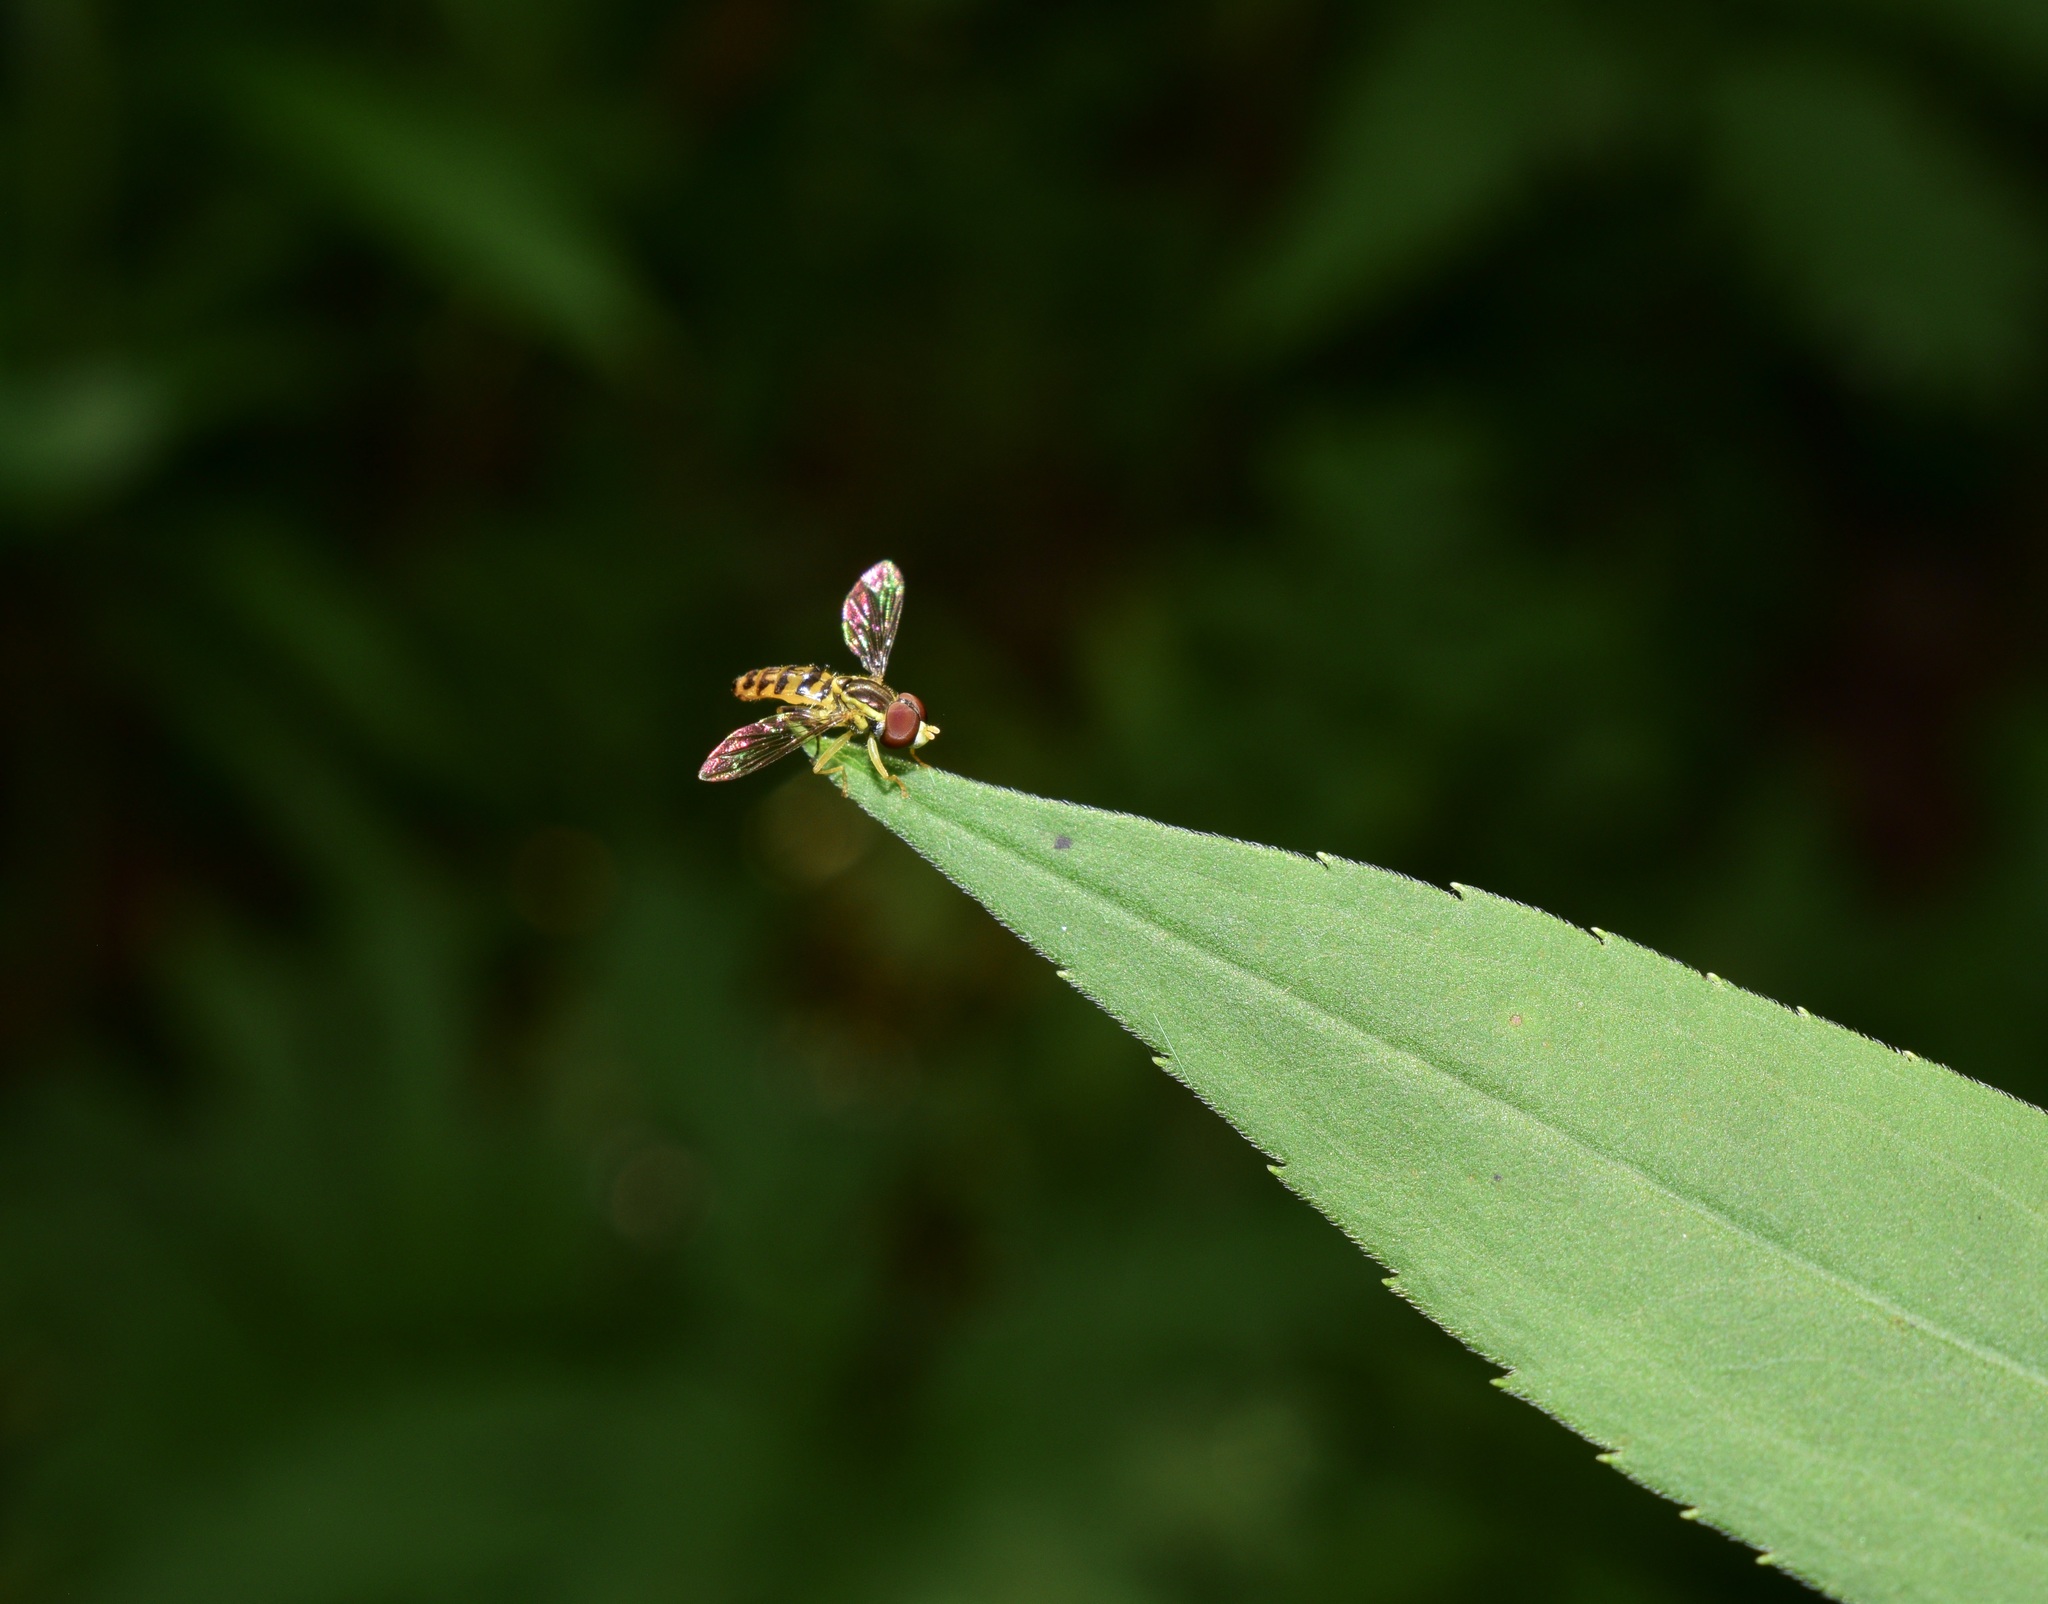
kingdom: Animalia
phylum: Arthropoda
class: Insecta
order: Diptera
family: Syrphidae
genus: Toxomerus
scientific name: Toxomerus geminatus
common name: Eastern calligrapher
